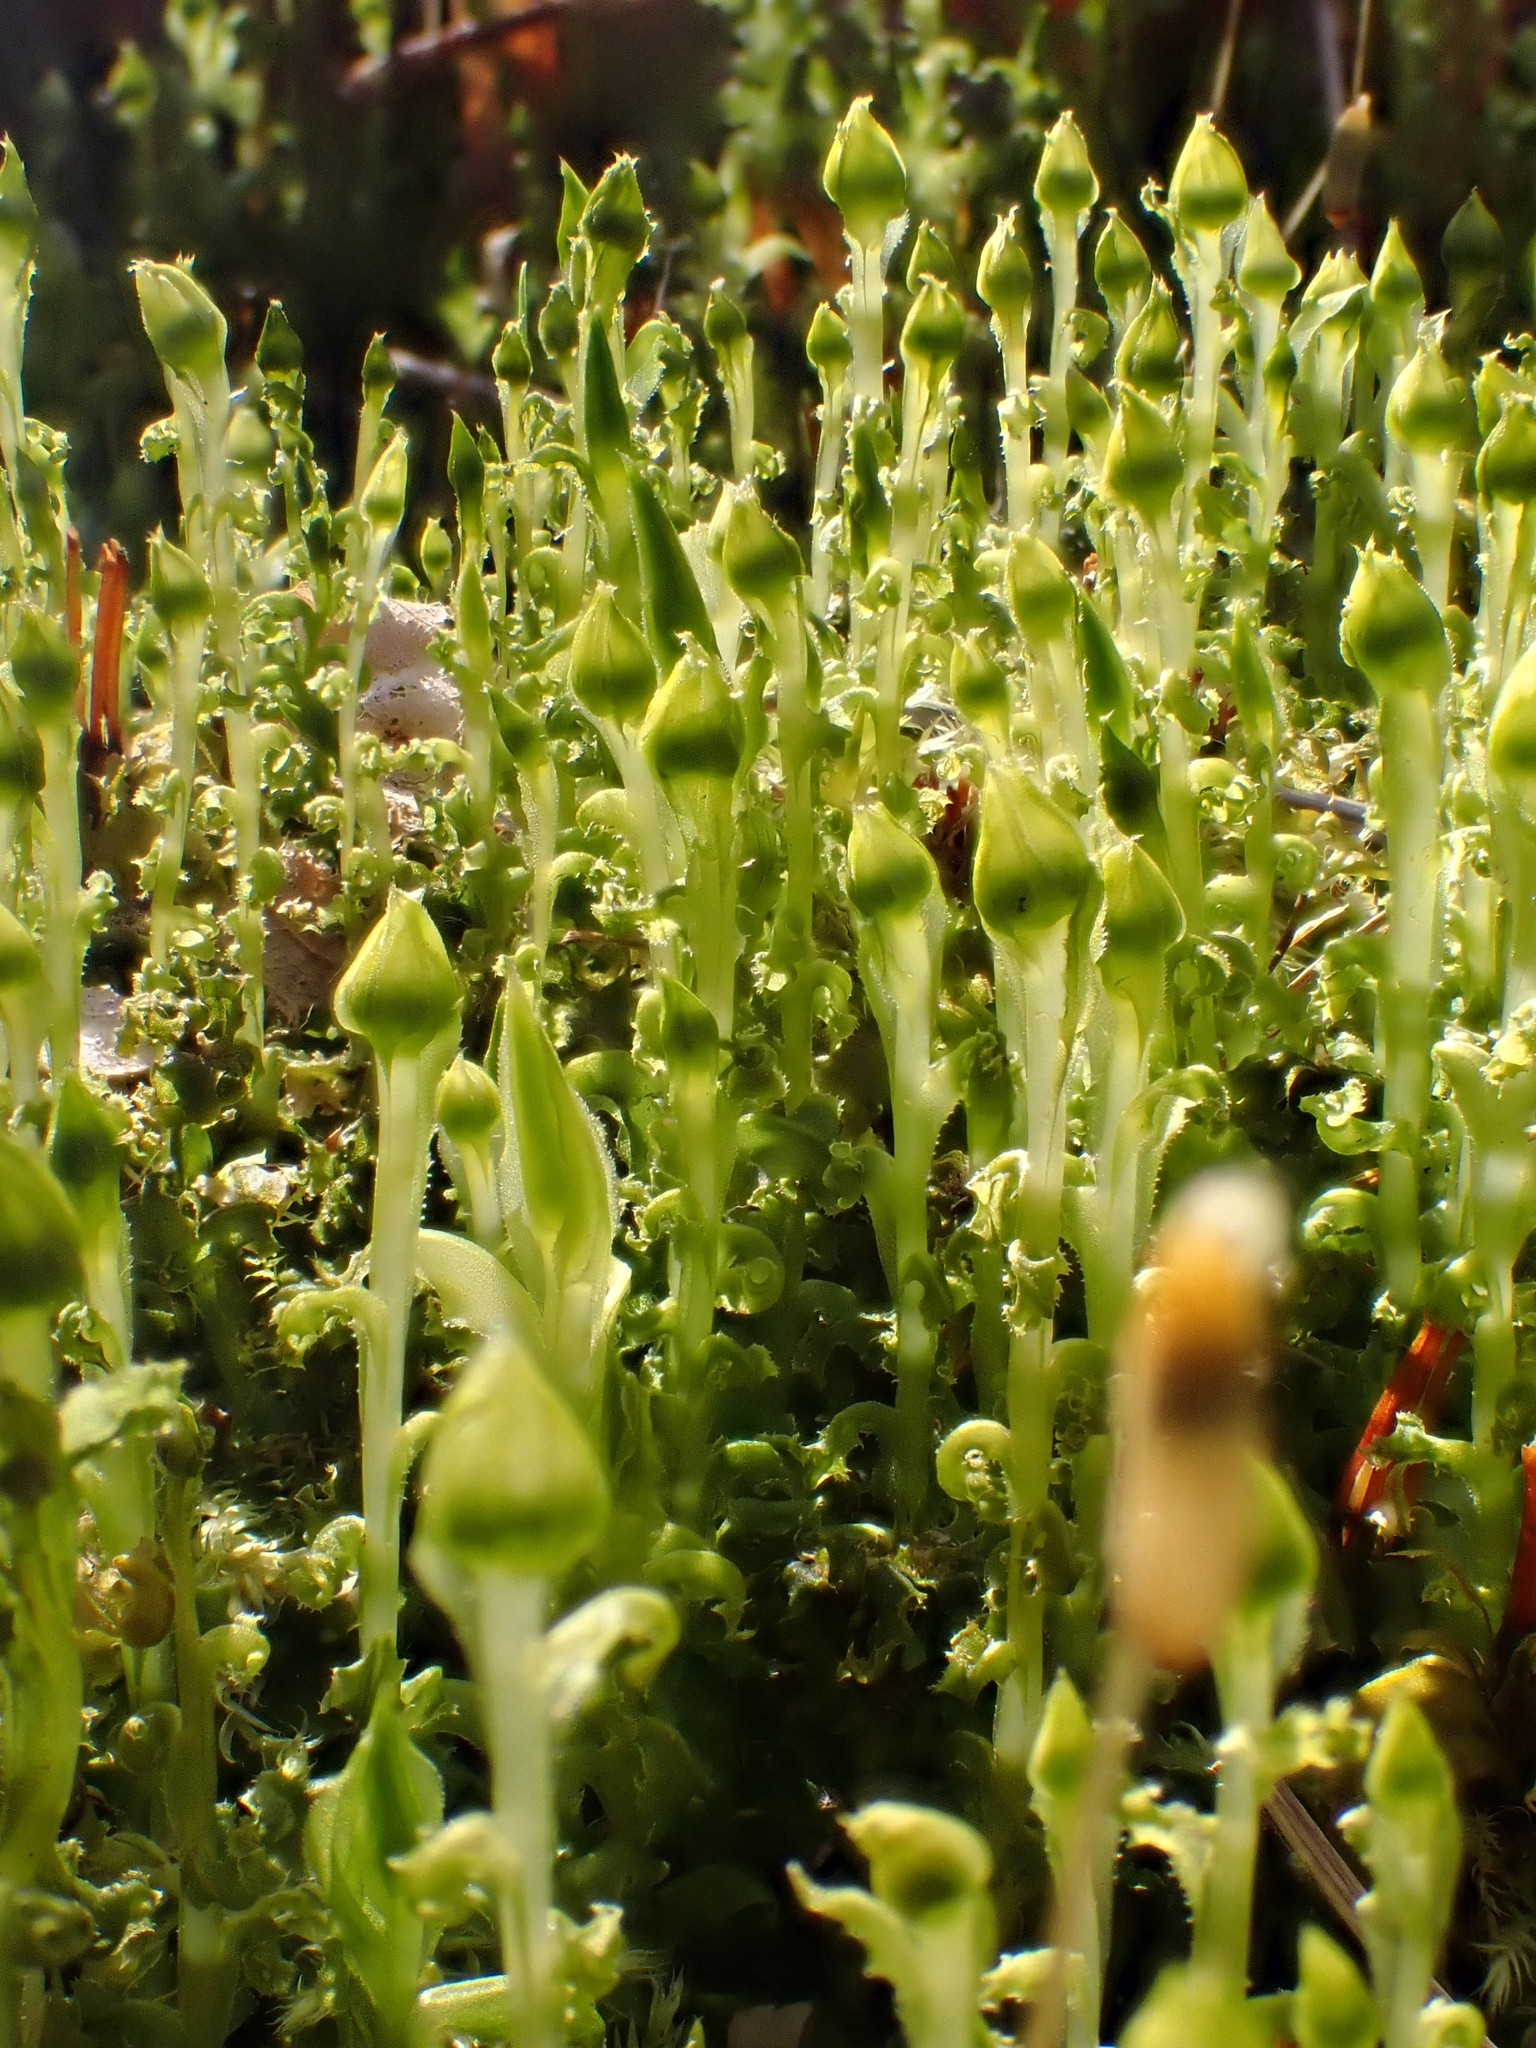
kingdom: Plantae
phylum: Bryophyta
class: Bryopsida
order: Bryales
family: Mniaceae
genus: Plagiomnium
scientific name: Plagiomnium insigne
